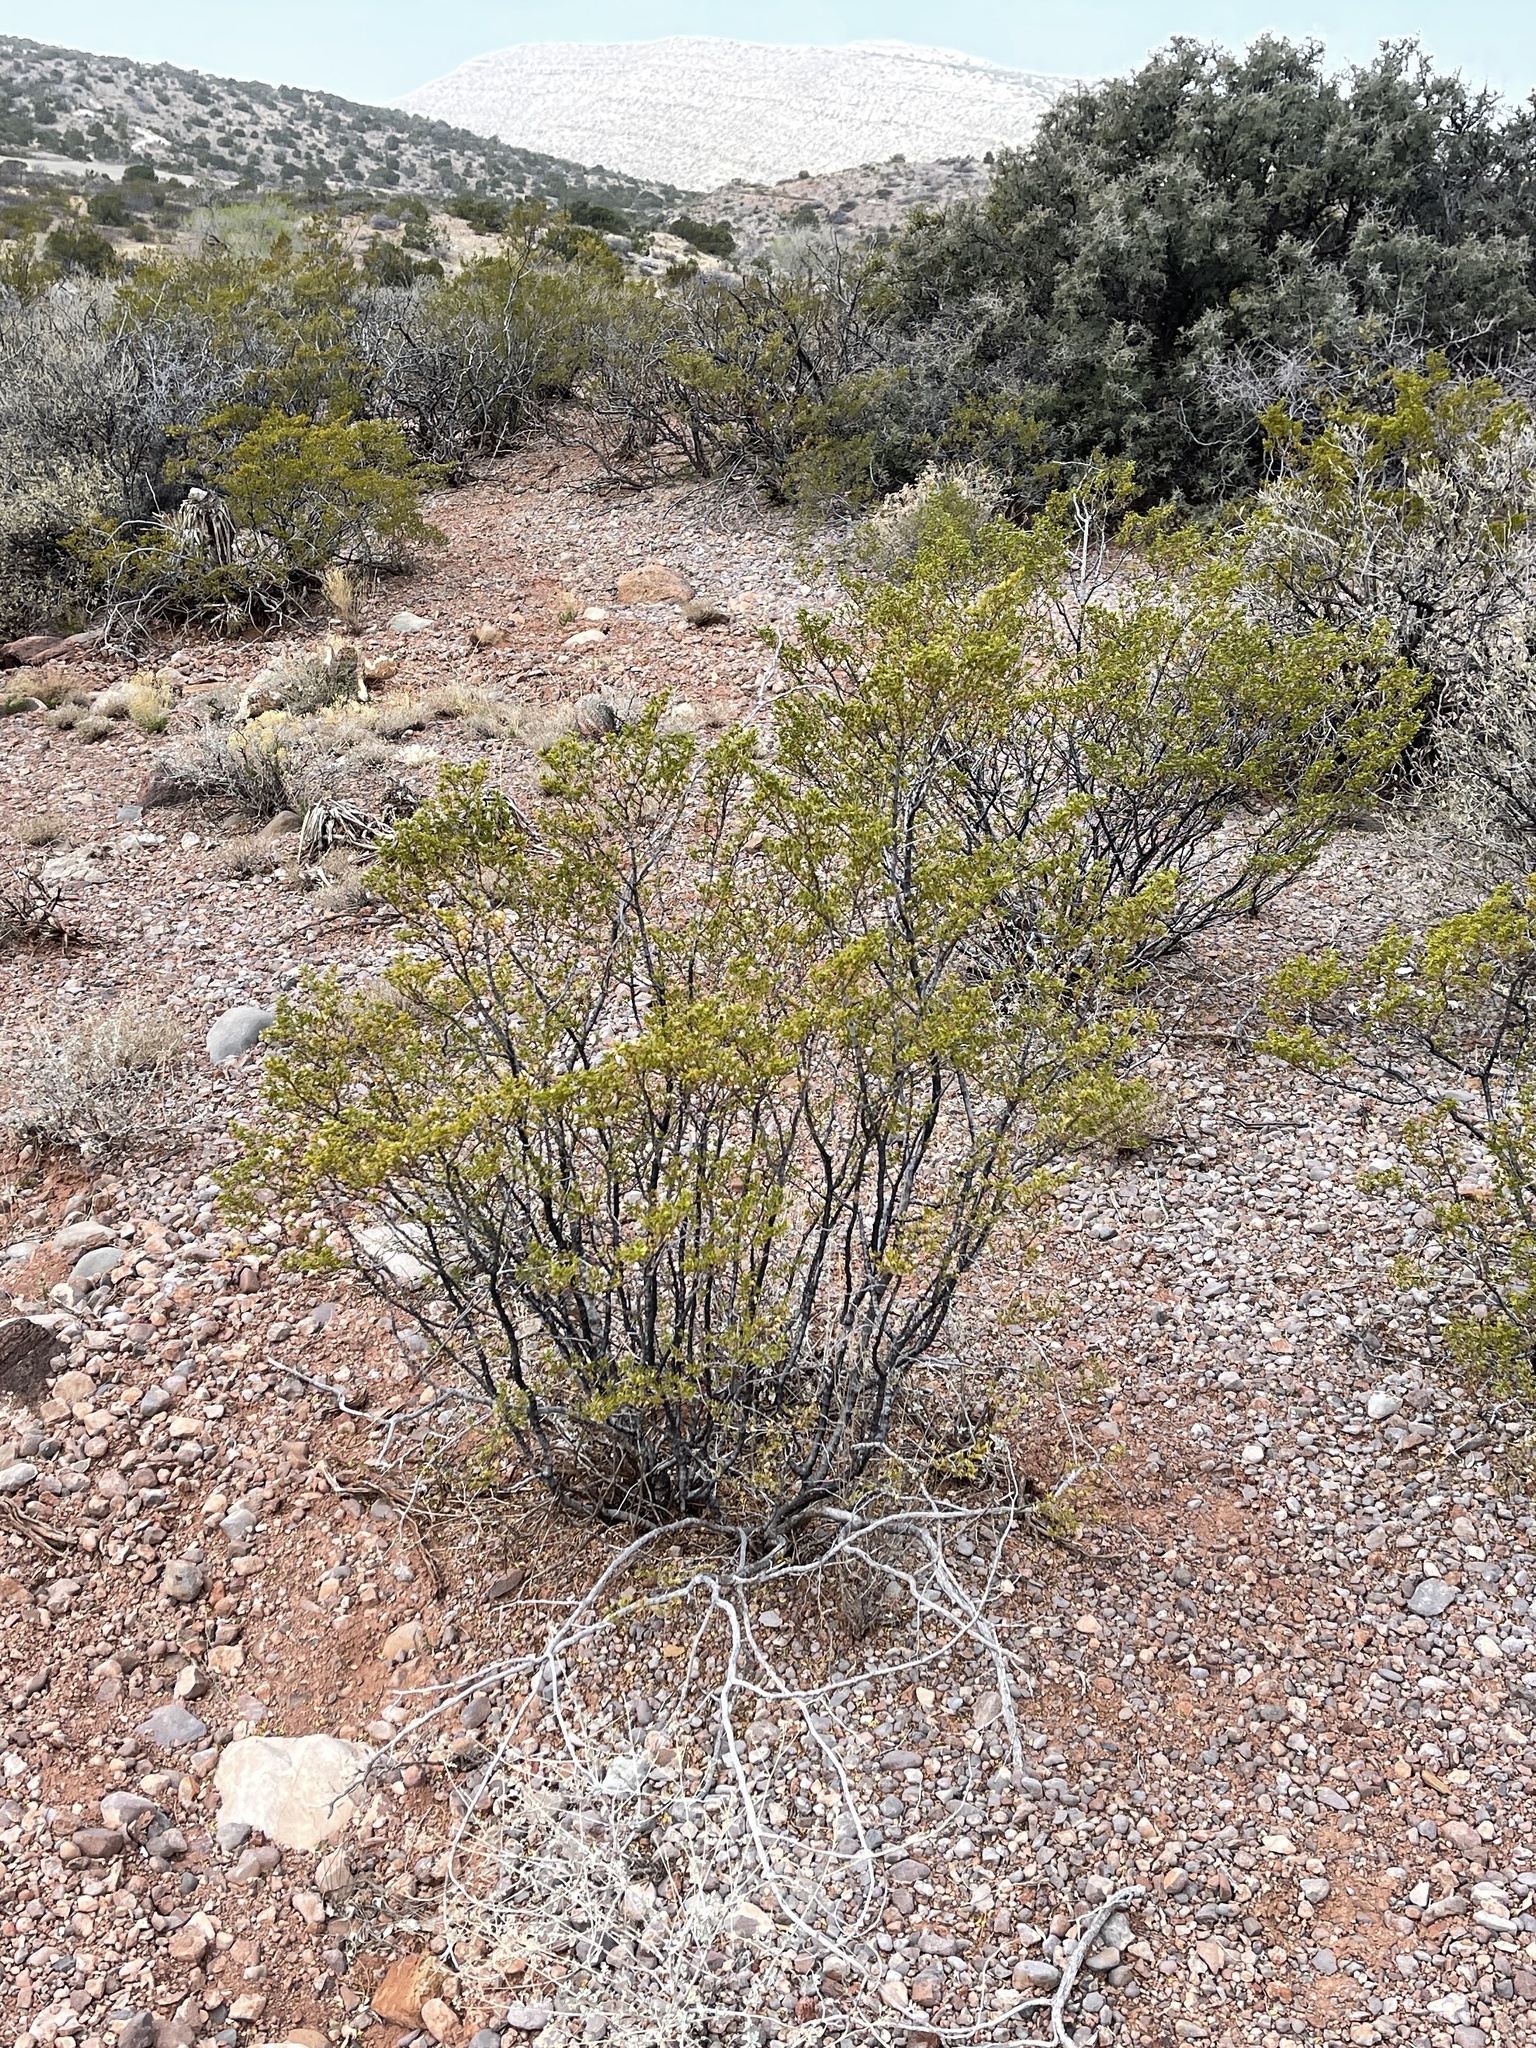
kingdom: Plantae
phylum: Tracheophyta
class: Magnoliopsida
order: Zygophyllales
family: Zygophyllaceae
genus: Larrea
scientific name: Larrea tridentata
